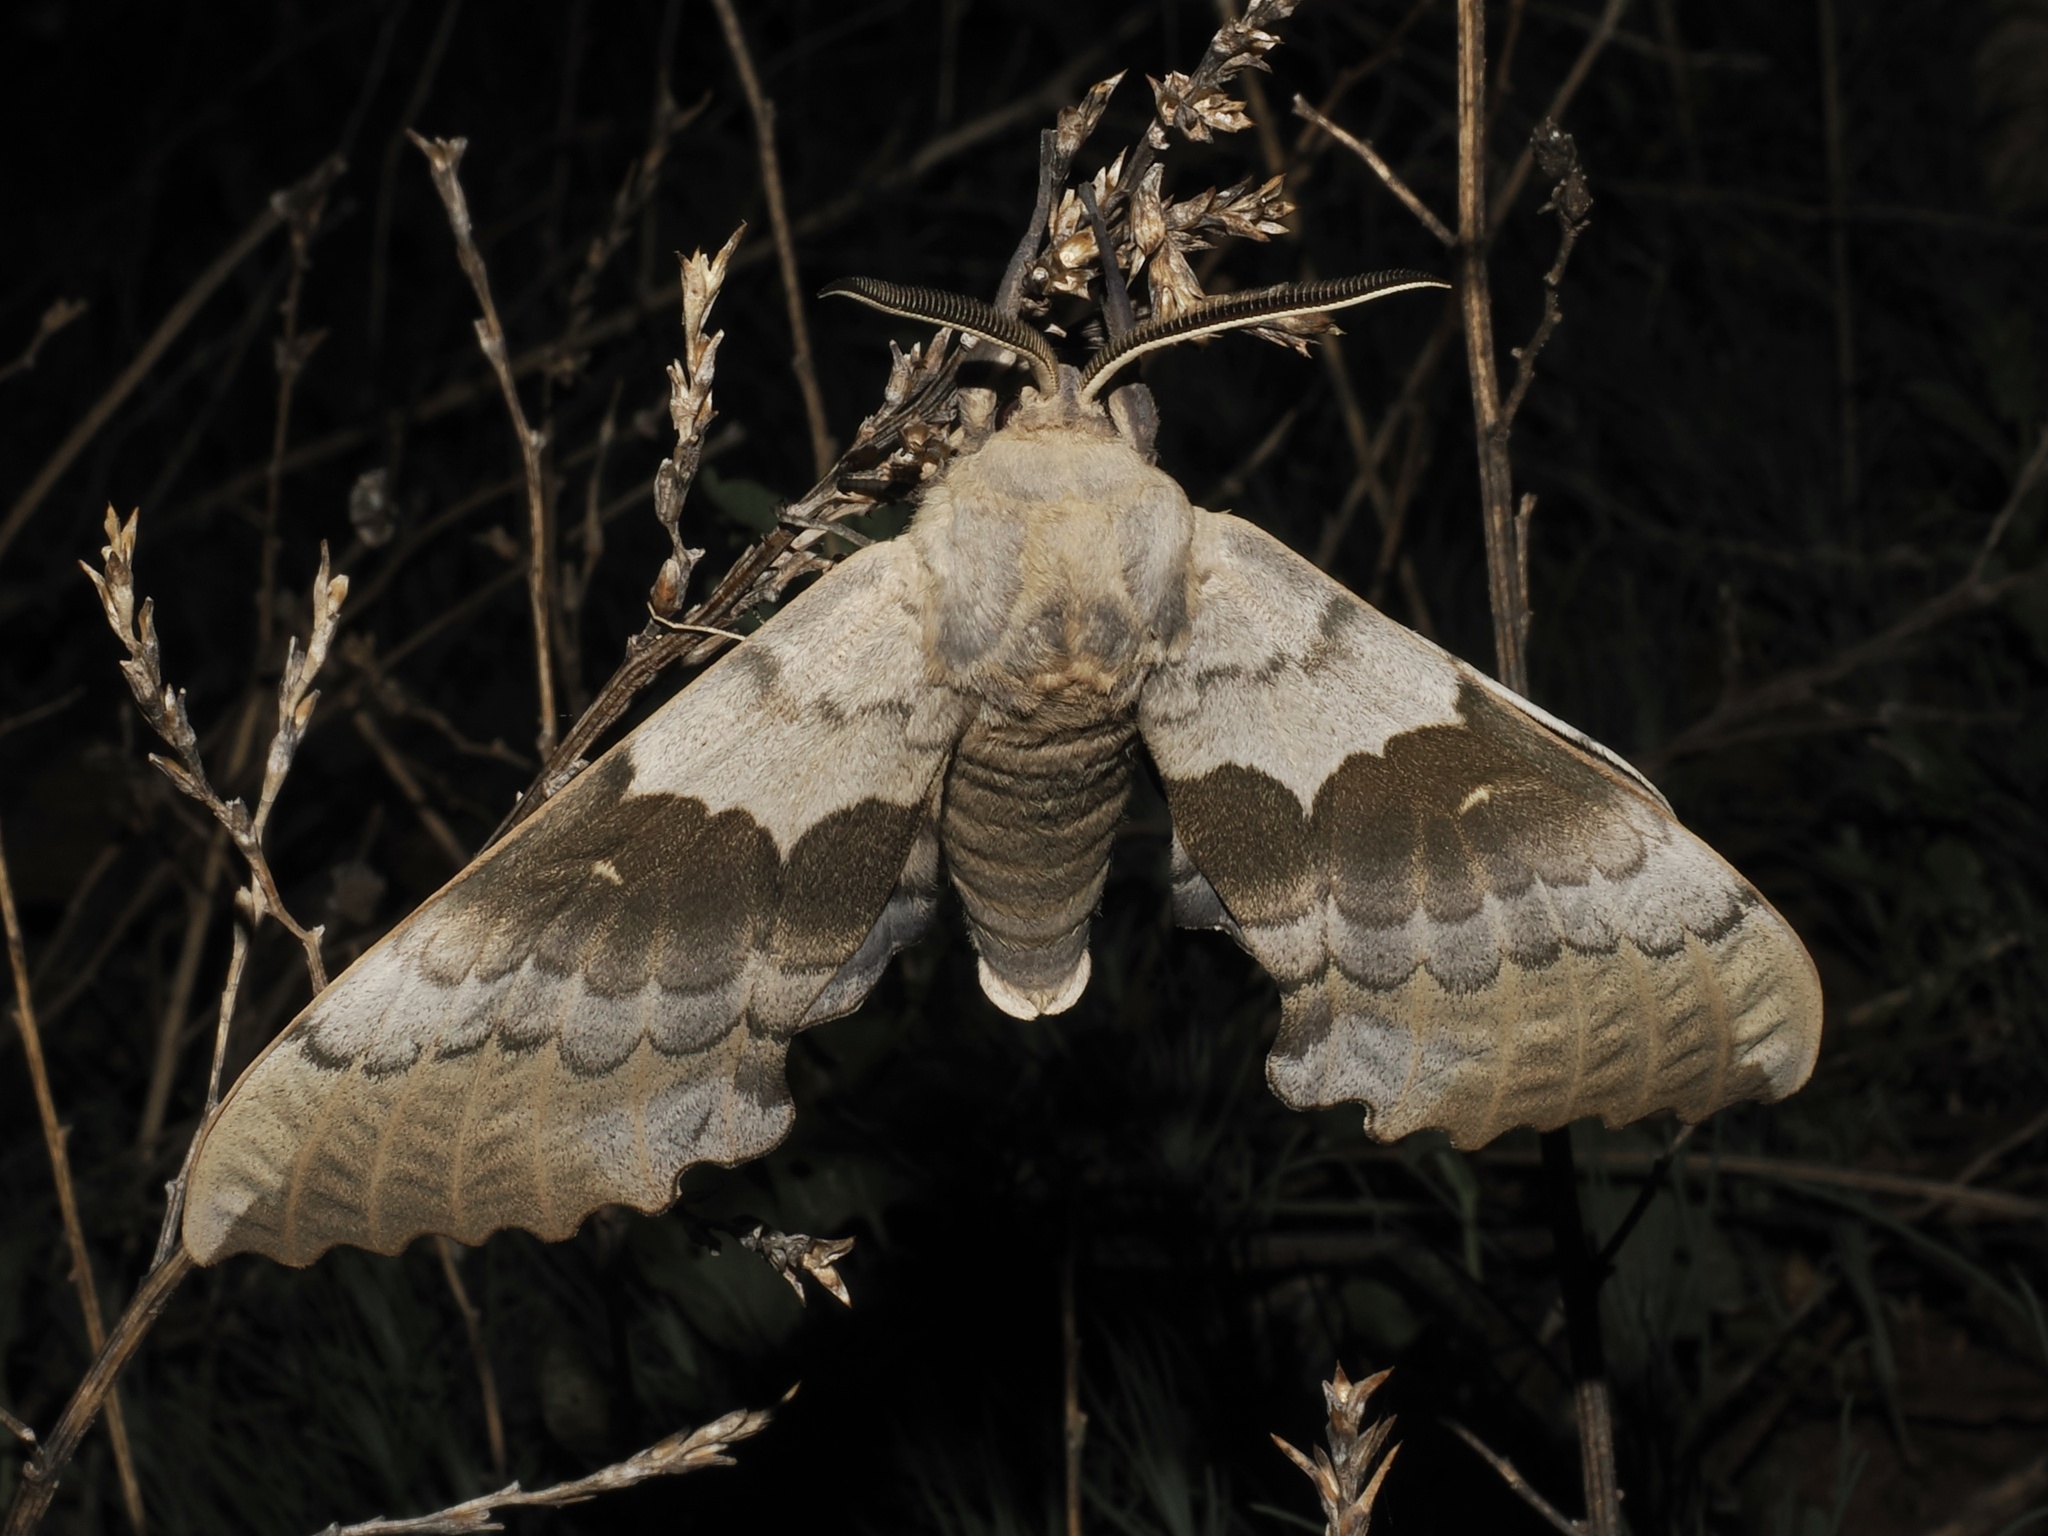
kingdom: Animalia
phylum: Arthropoda
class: Insecta
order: Lepidoptera
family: Sphingidae
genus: Pachysphinx
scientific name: Pachysphinx occidentalis
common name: Western poplar sphinx
